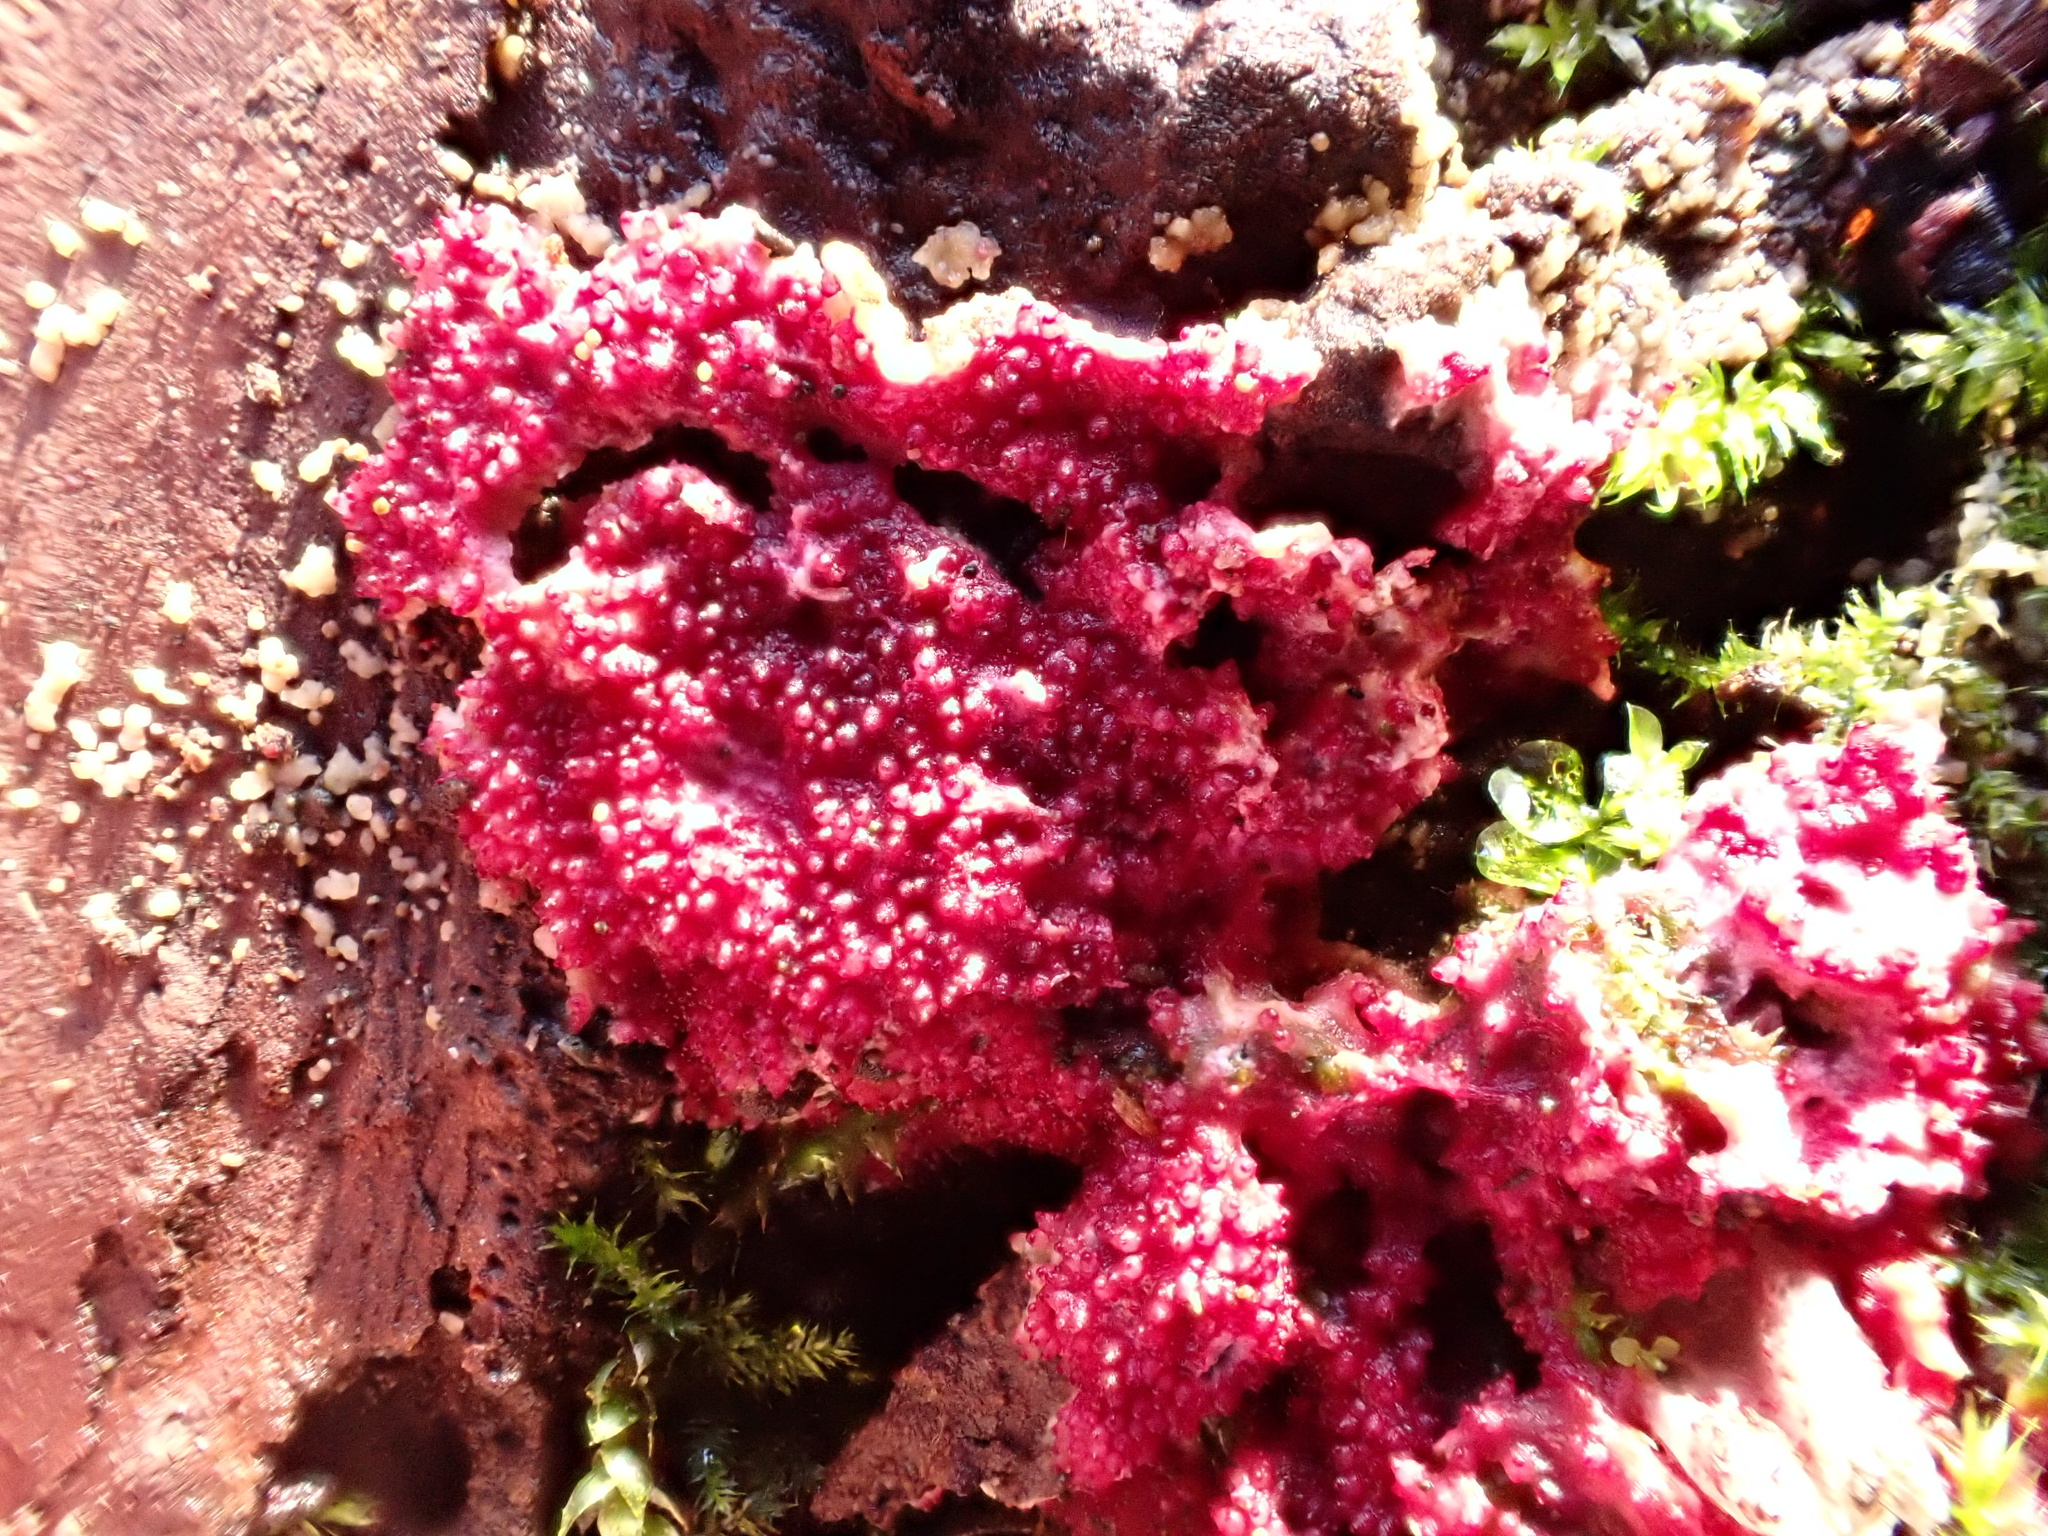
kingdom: Fungi
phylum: Ascomycota
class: Sordariomycetes
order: Hypocreales
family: Hypocreaceae
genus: Hypomyces
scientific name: Hypomyces rosellus
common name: Pink polypore mould
